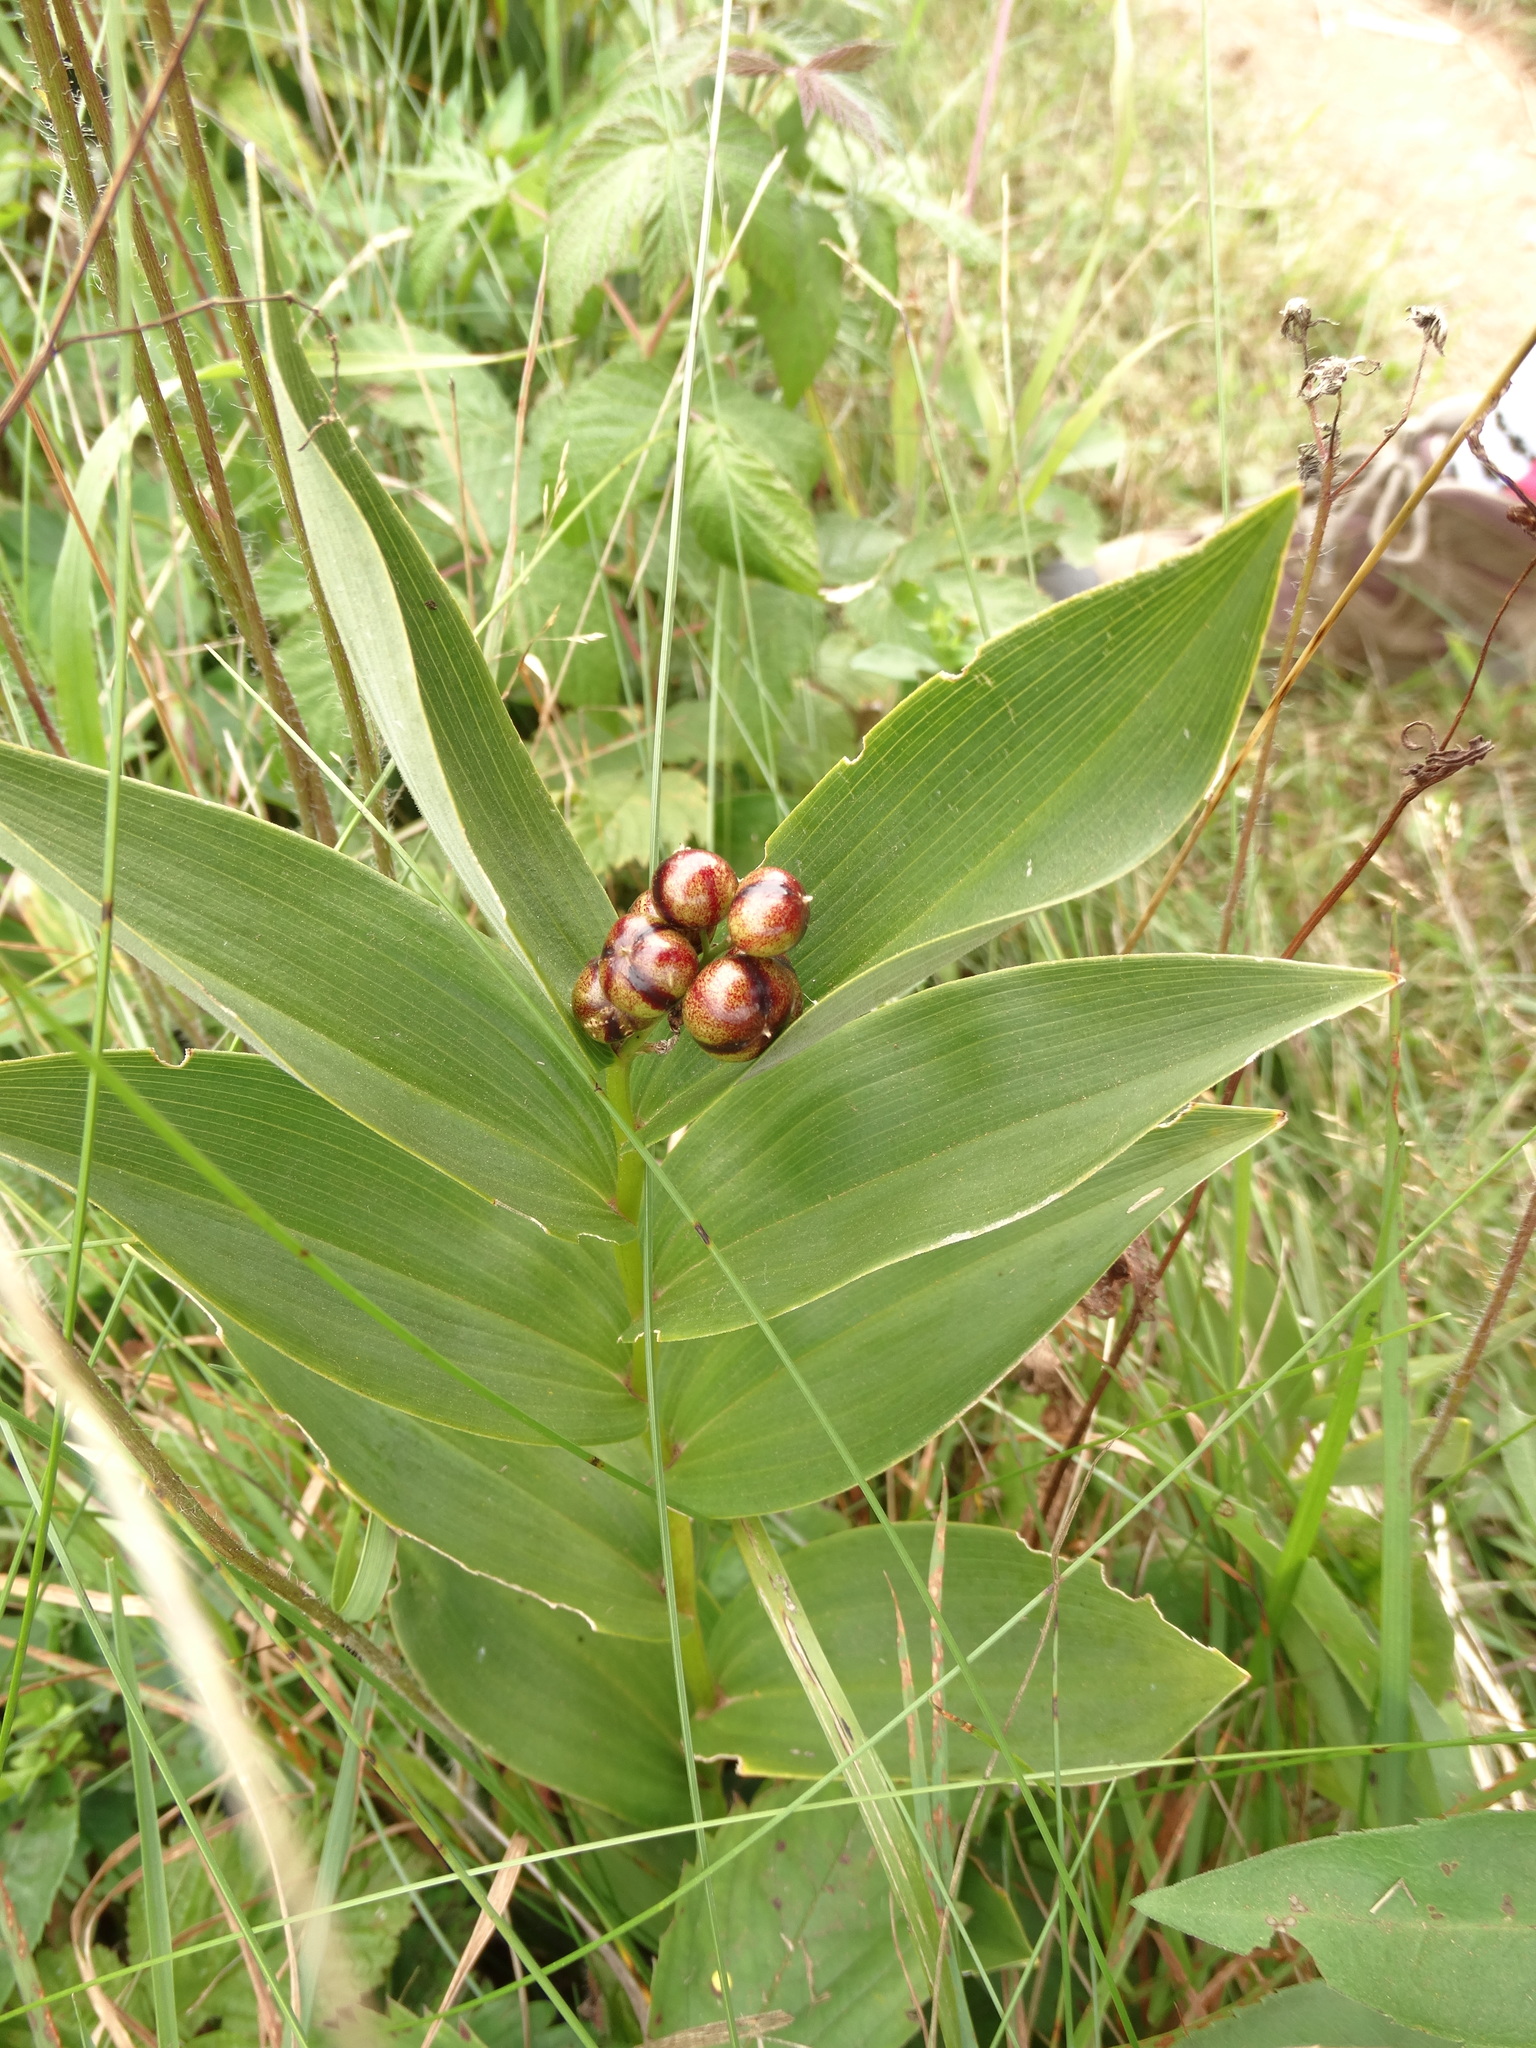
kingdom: Plantae
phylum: Tracheophyta
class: Liliopsida
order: Asparagales
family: Asparagaceae
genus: Maianthemum
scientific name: Maianthemum stellatum
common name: Little false solomon's seal
